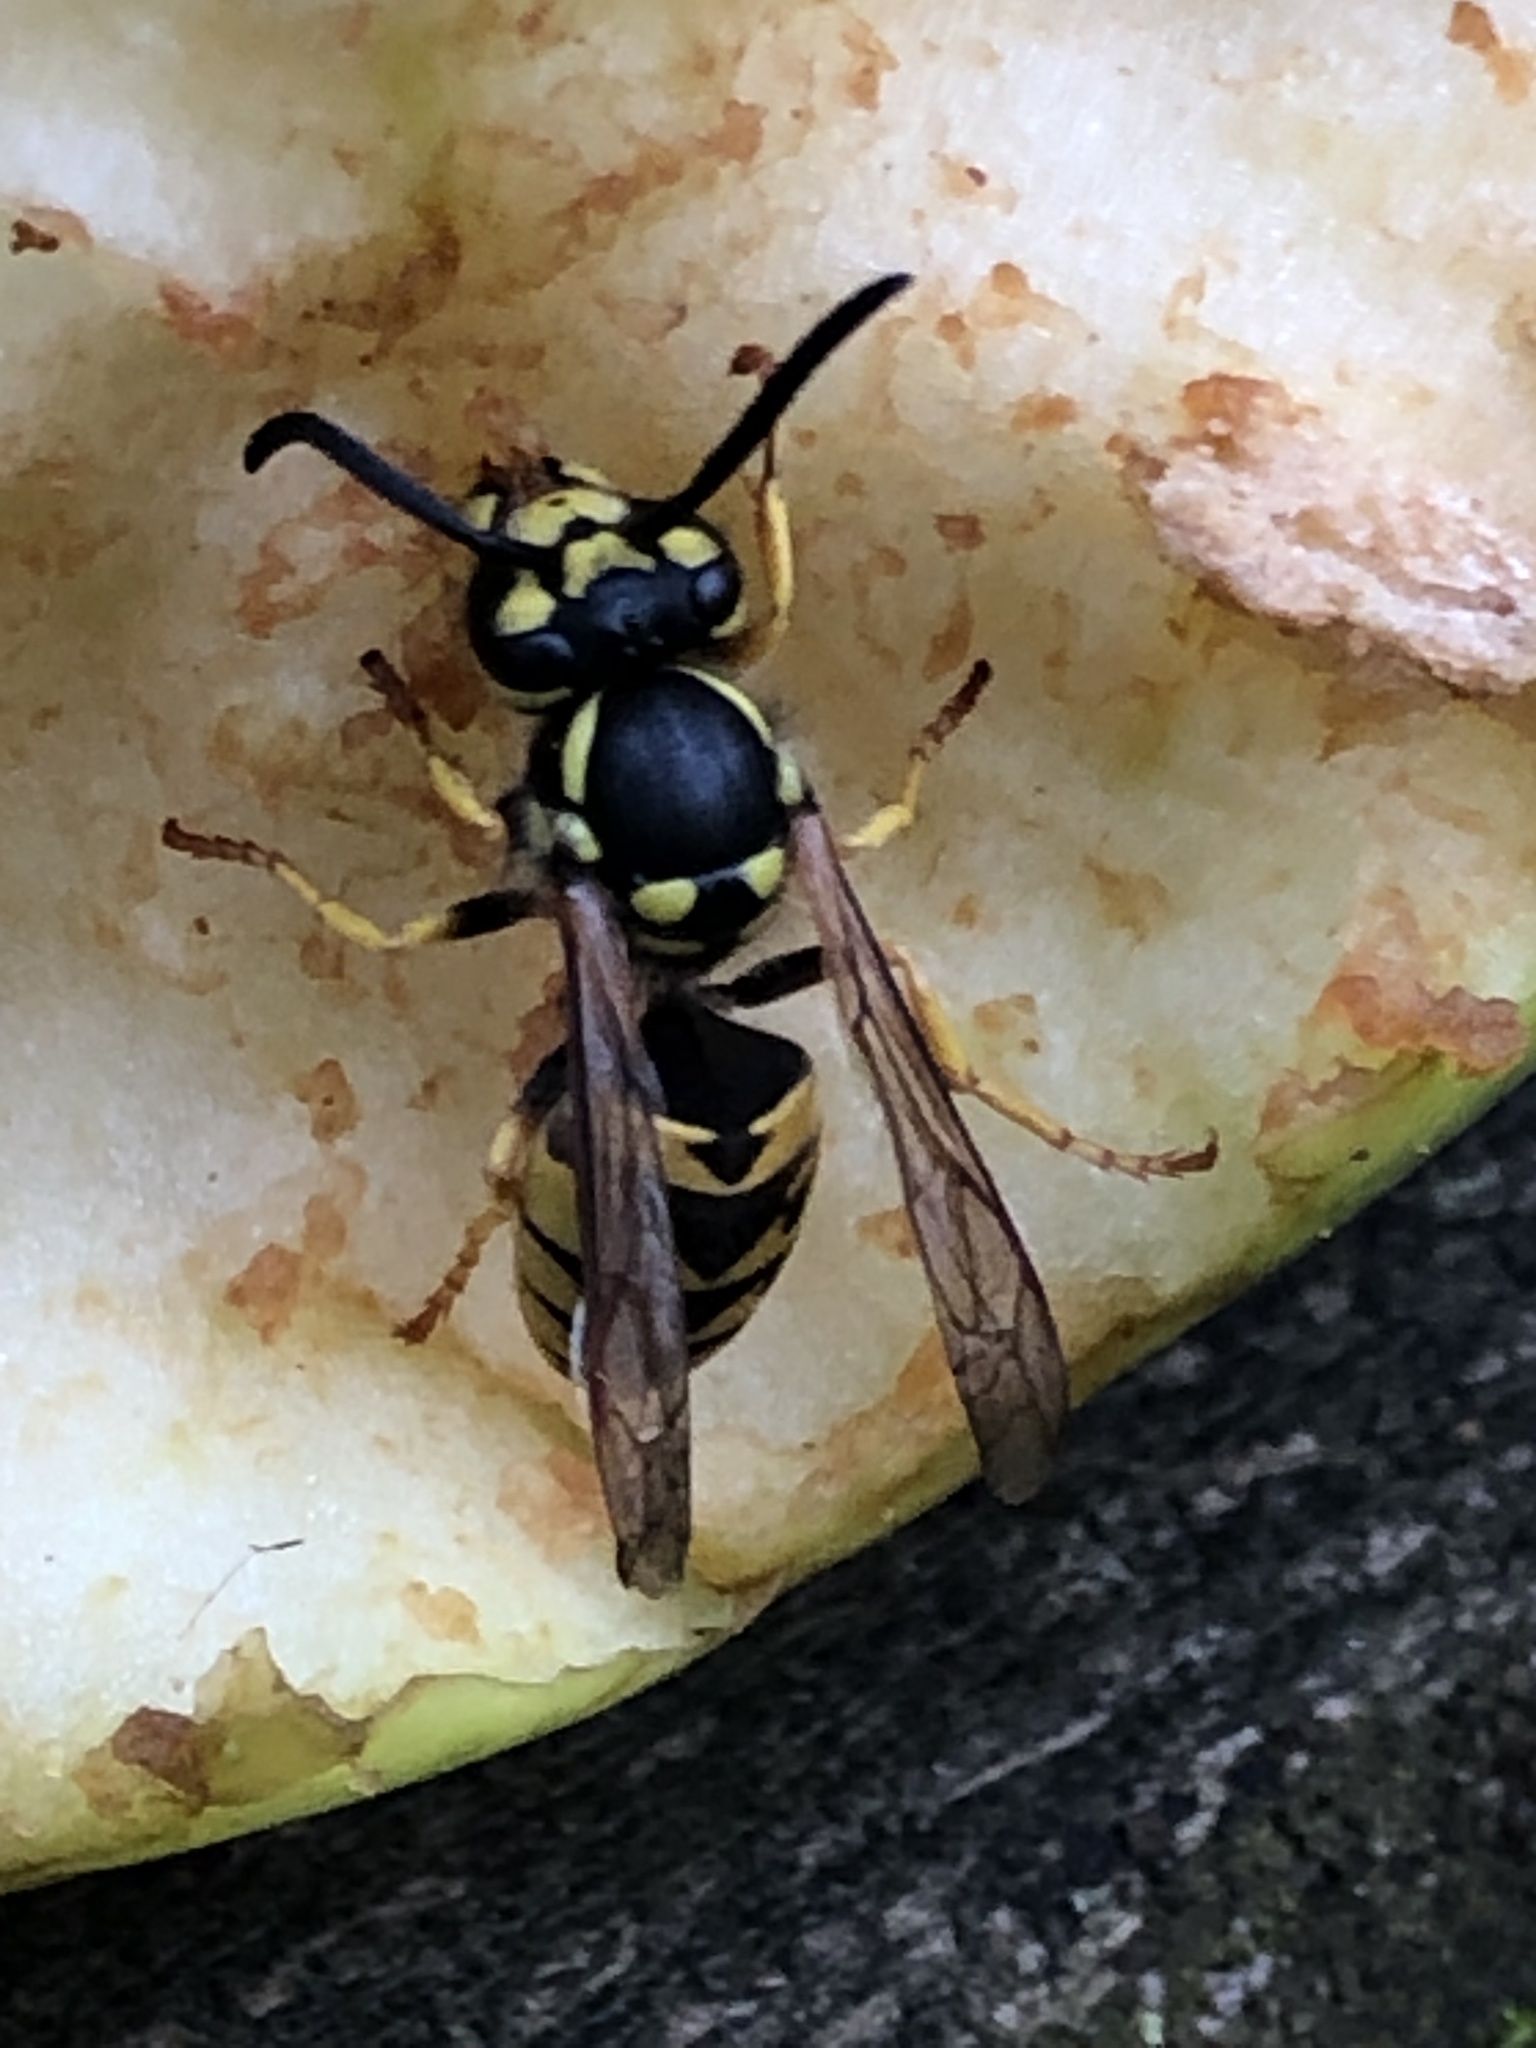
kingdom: Animalia
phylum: Arthropoda
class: Insecta
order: Hymenoptera
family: Vespidae
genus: Vespula
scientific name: Vespula germanica
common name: German wasp
